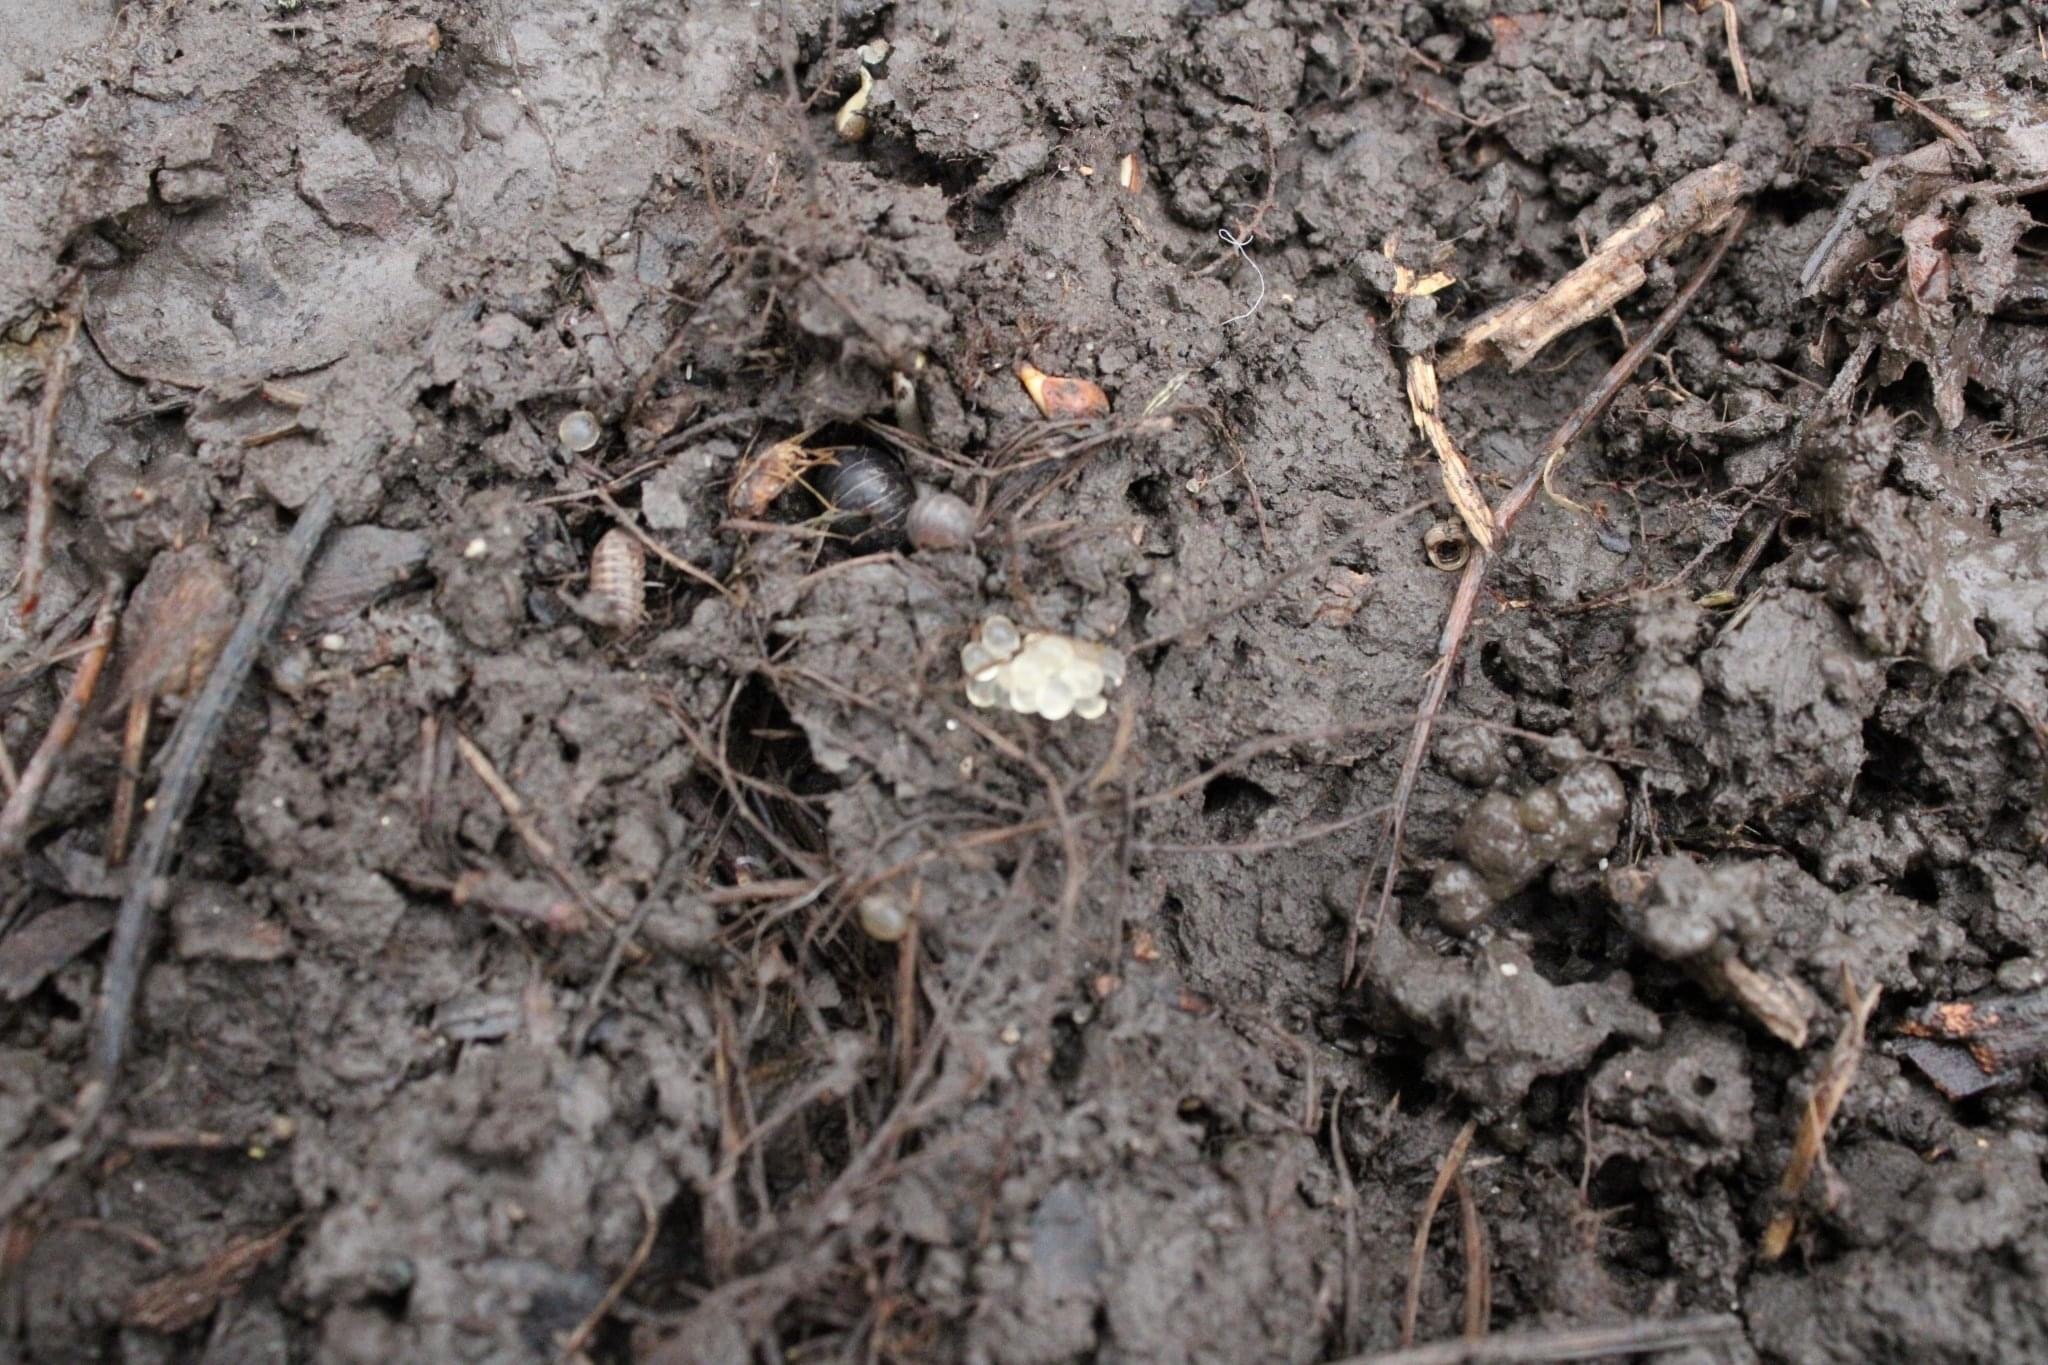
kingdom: Animalia
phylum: Mollusca
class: Gastropoda
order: Stylommatophora
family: Limacidae
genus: Limax
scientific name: Limax maximus
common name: Great grey slug
